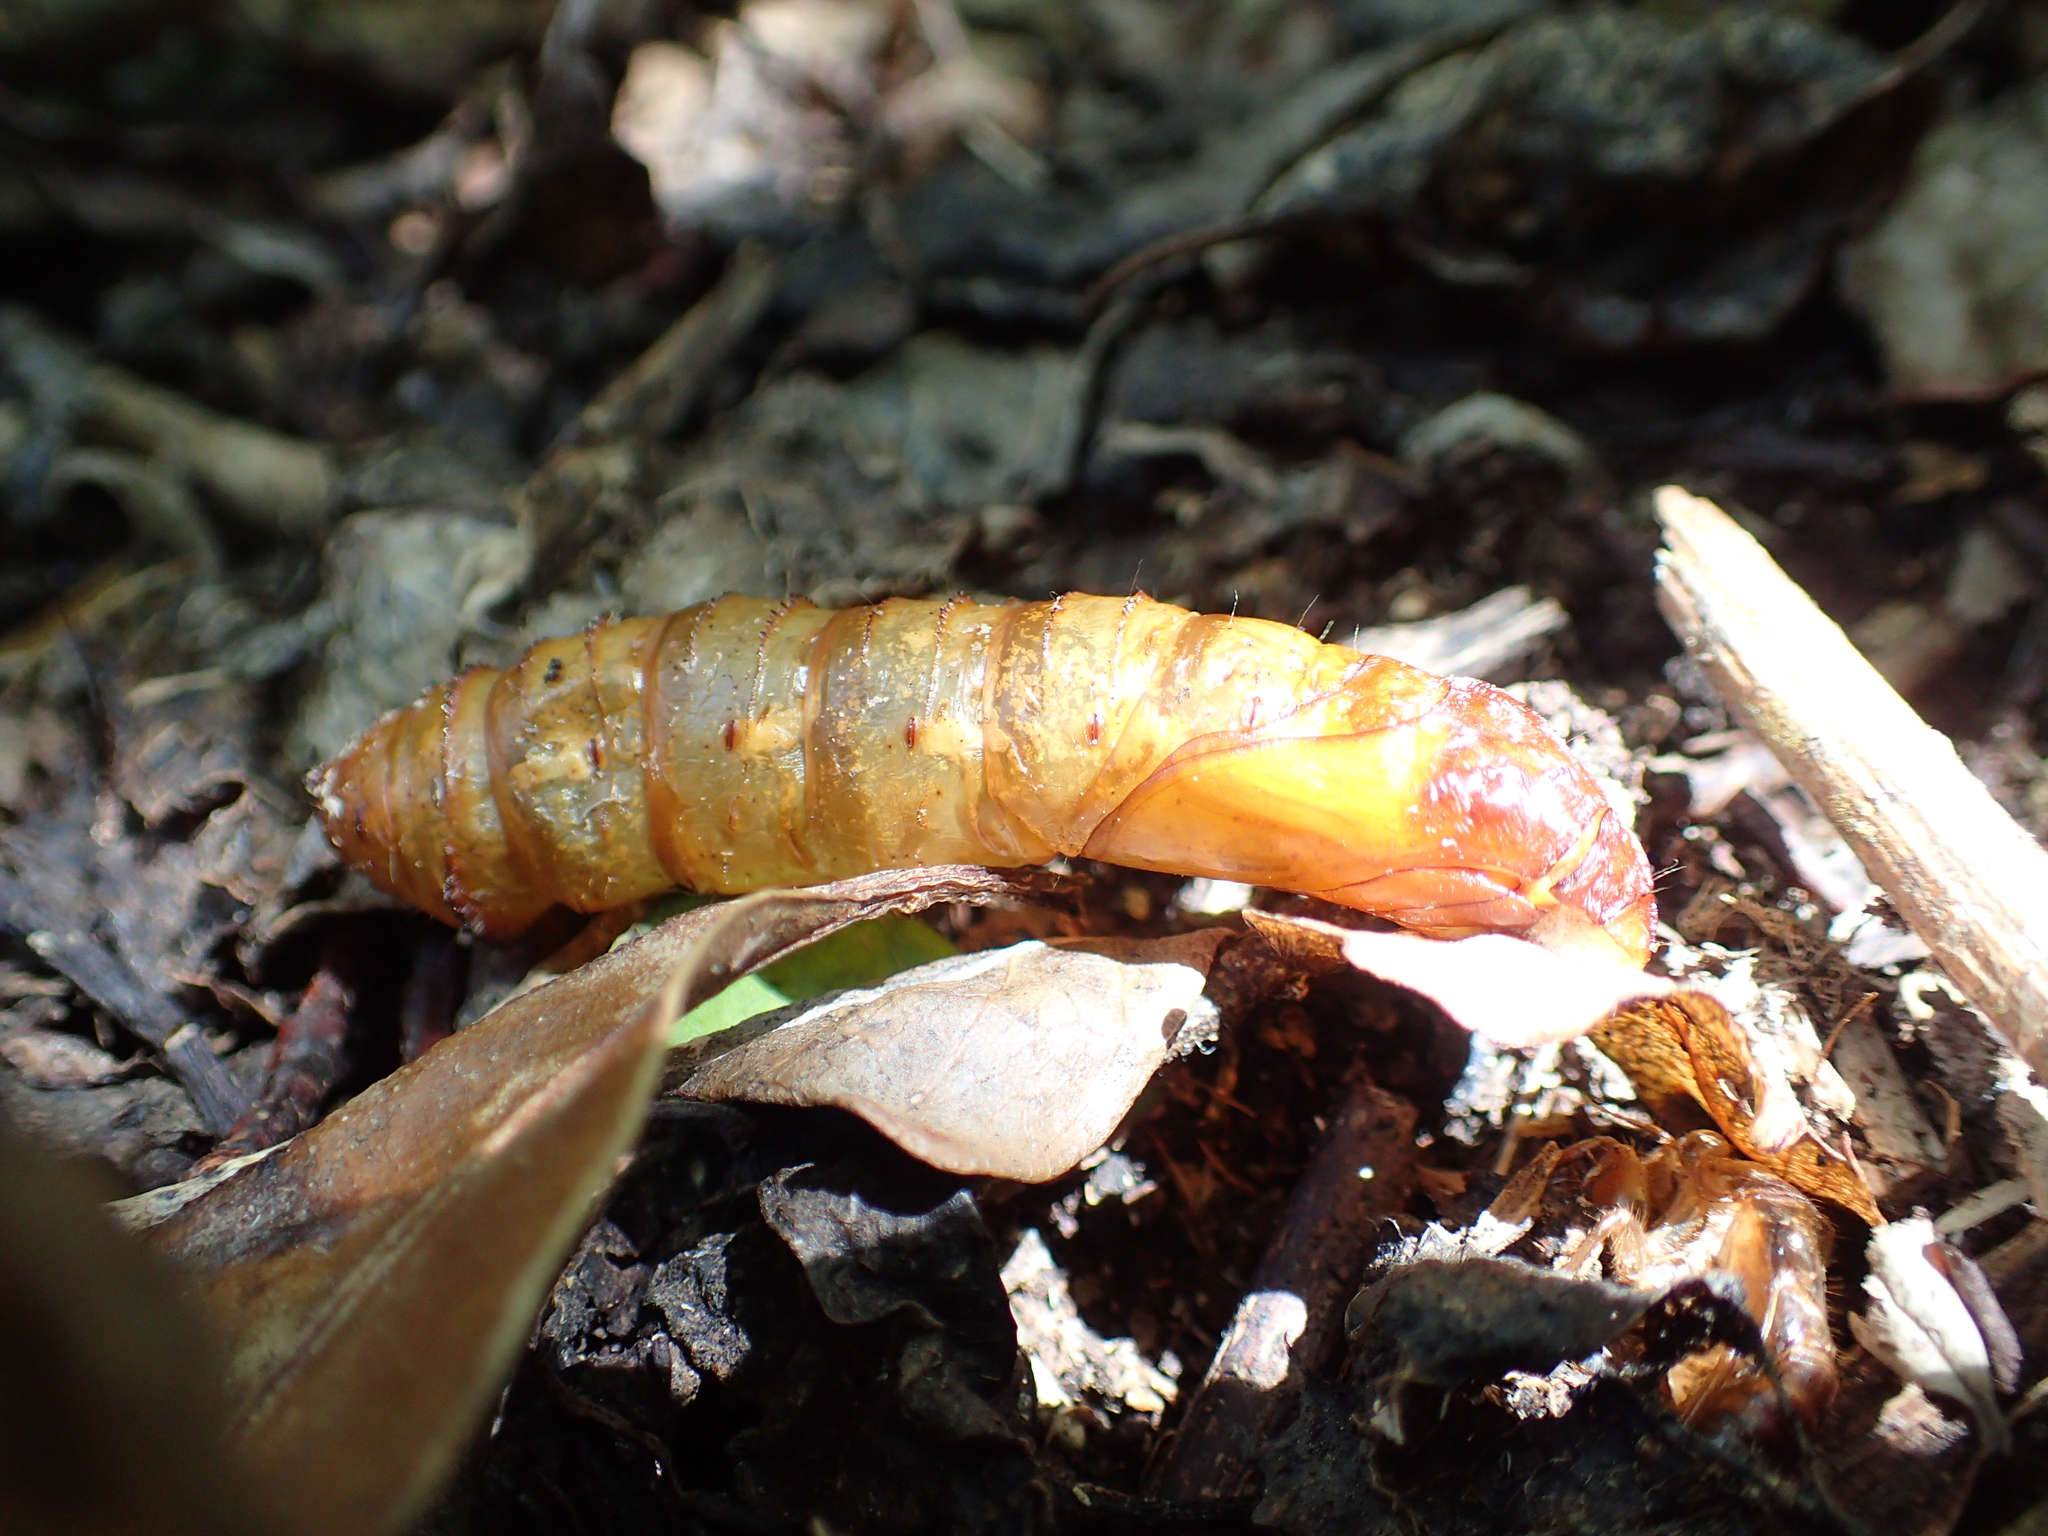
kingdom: Animalia
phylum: Arthropoda
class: Insecta
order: Lepidoptera
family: Hepialidae
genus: Aenetus
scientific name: Aenetus virescens
